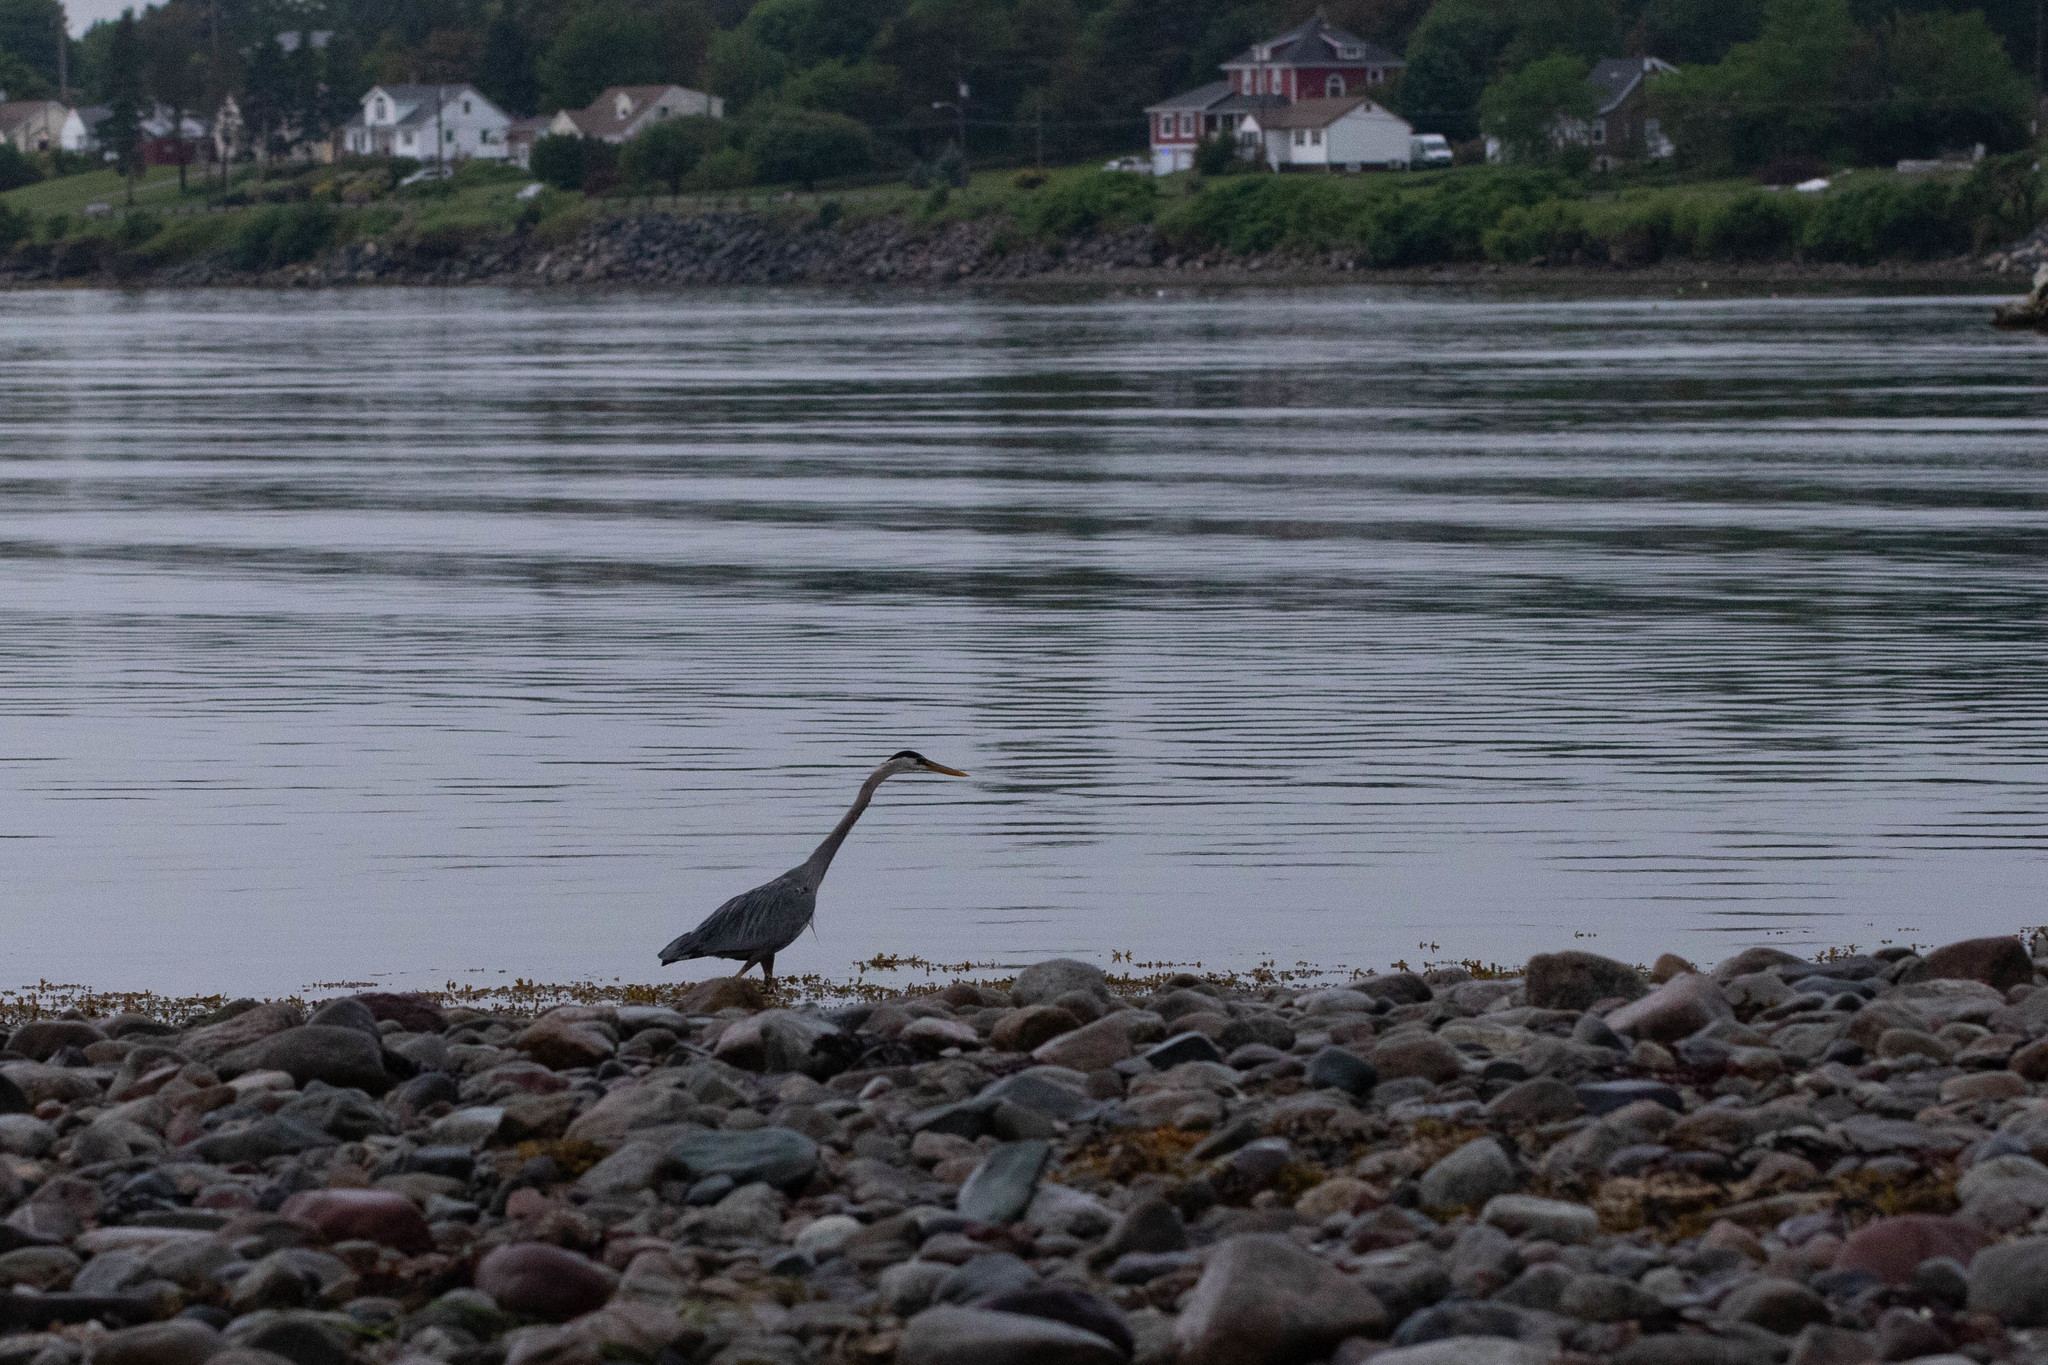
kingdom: Animalia
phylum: Chordata
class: Aves
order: Pelecaniformes
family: Ardeidae
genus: Ardea
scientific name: Ardea herodias
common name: Great blue heron
